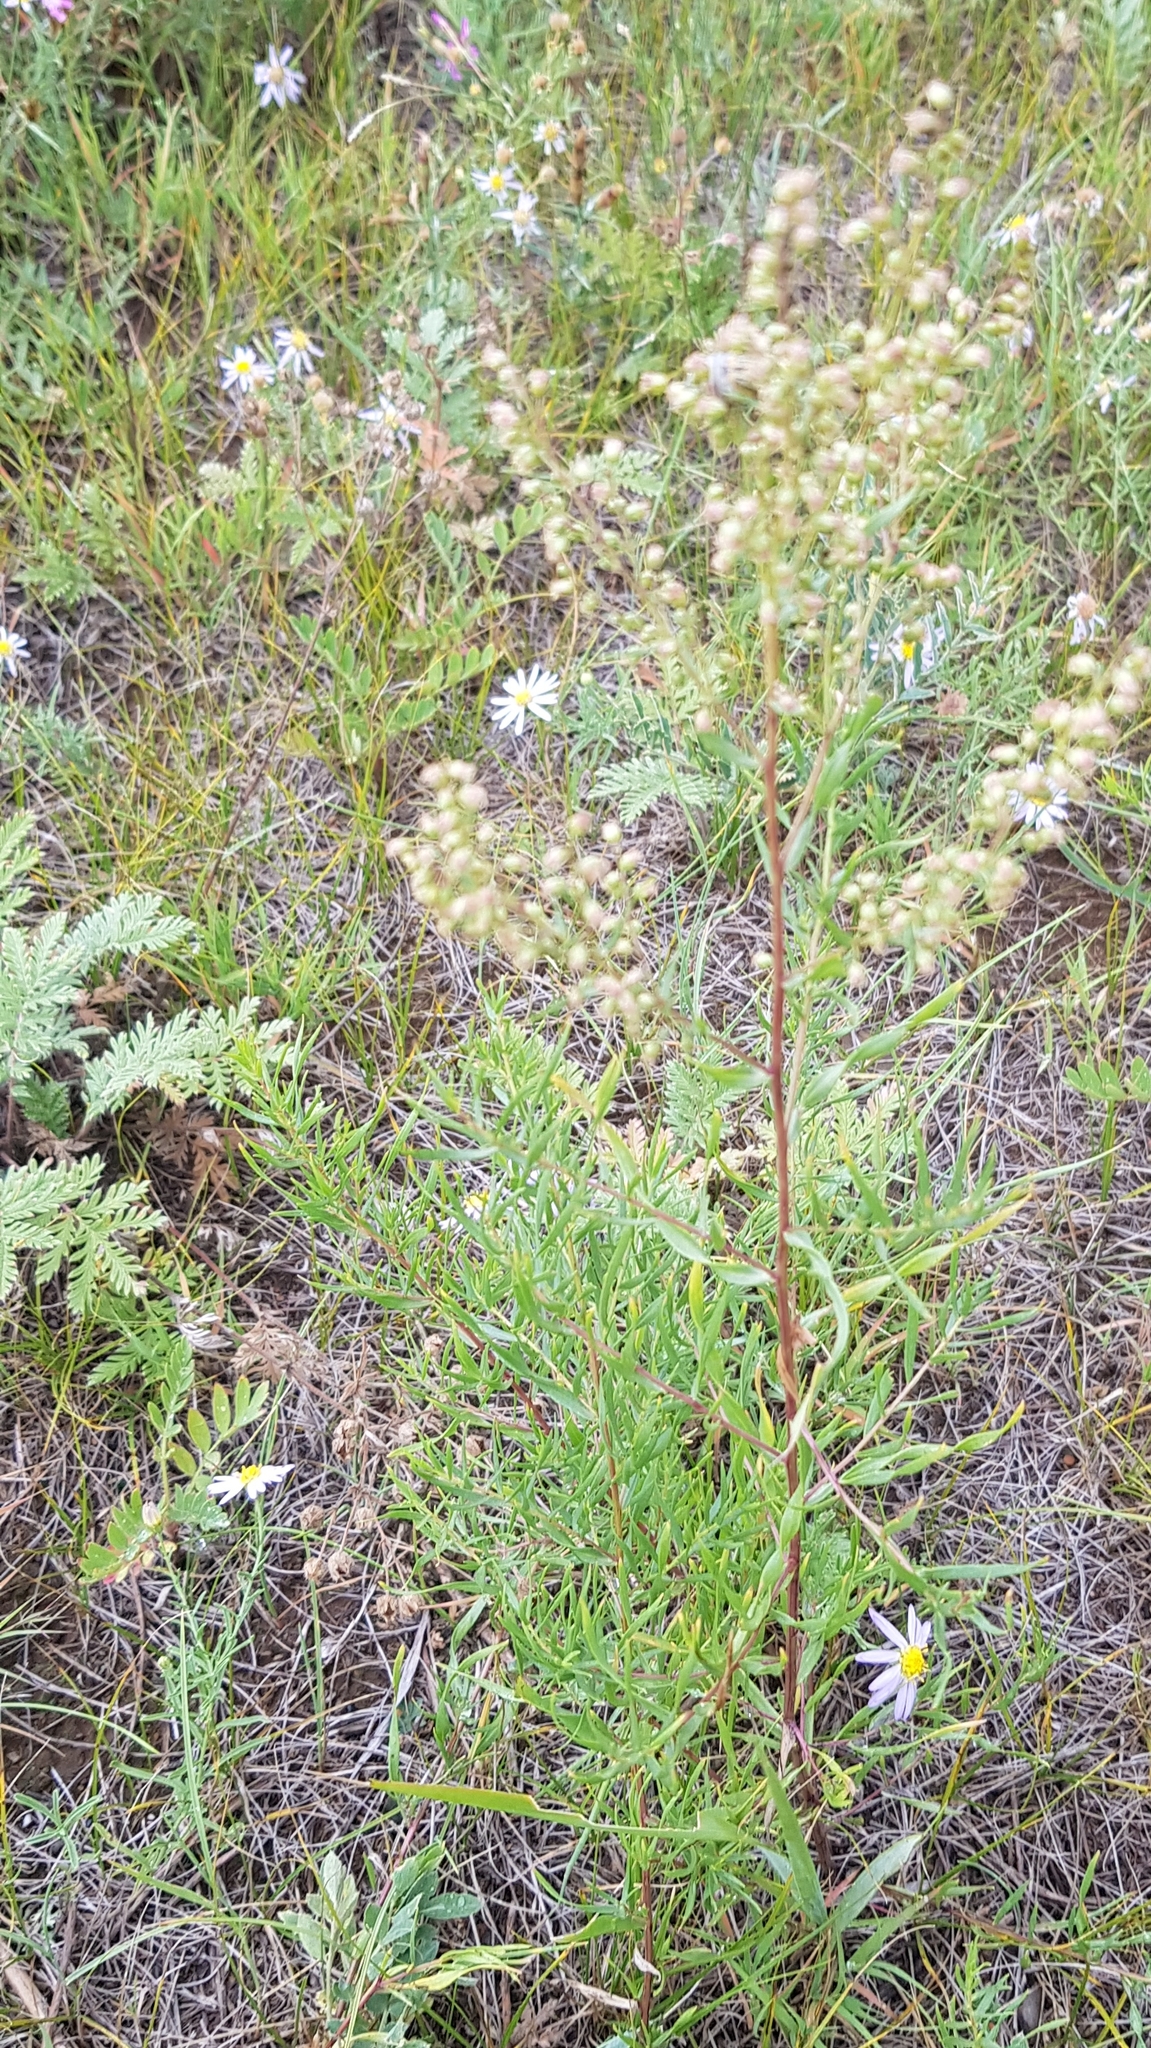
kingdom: Plantae
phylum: Tracheophyta
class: Magnoliopsida
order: Asterales
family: Asteraceae
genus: Artemisia
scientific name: Artemisia dracunculus
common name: Tarragon
